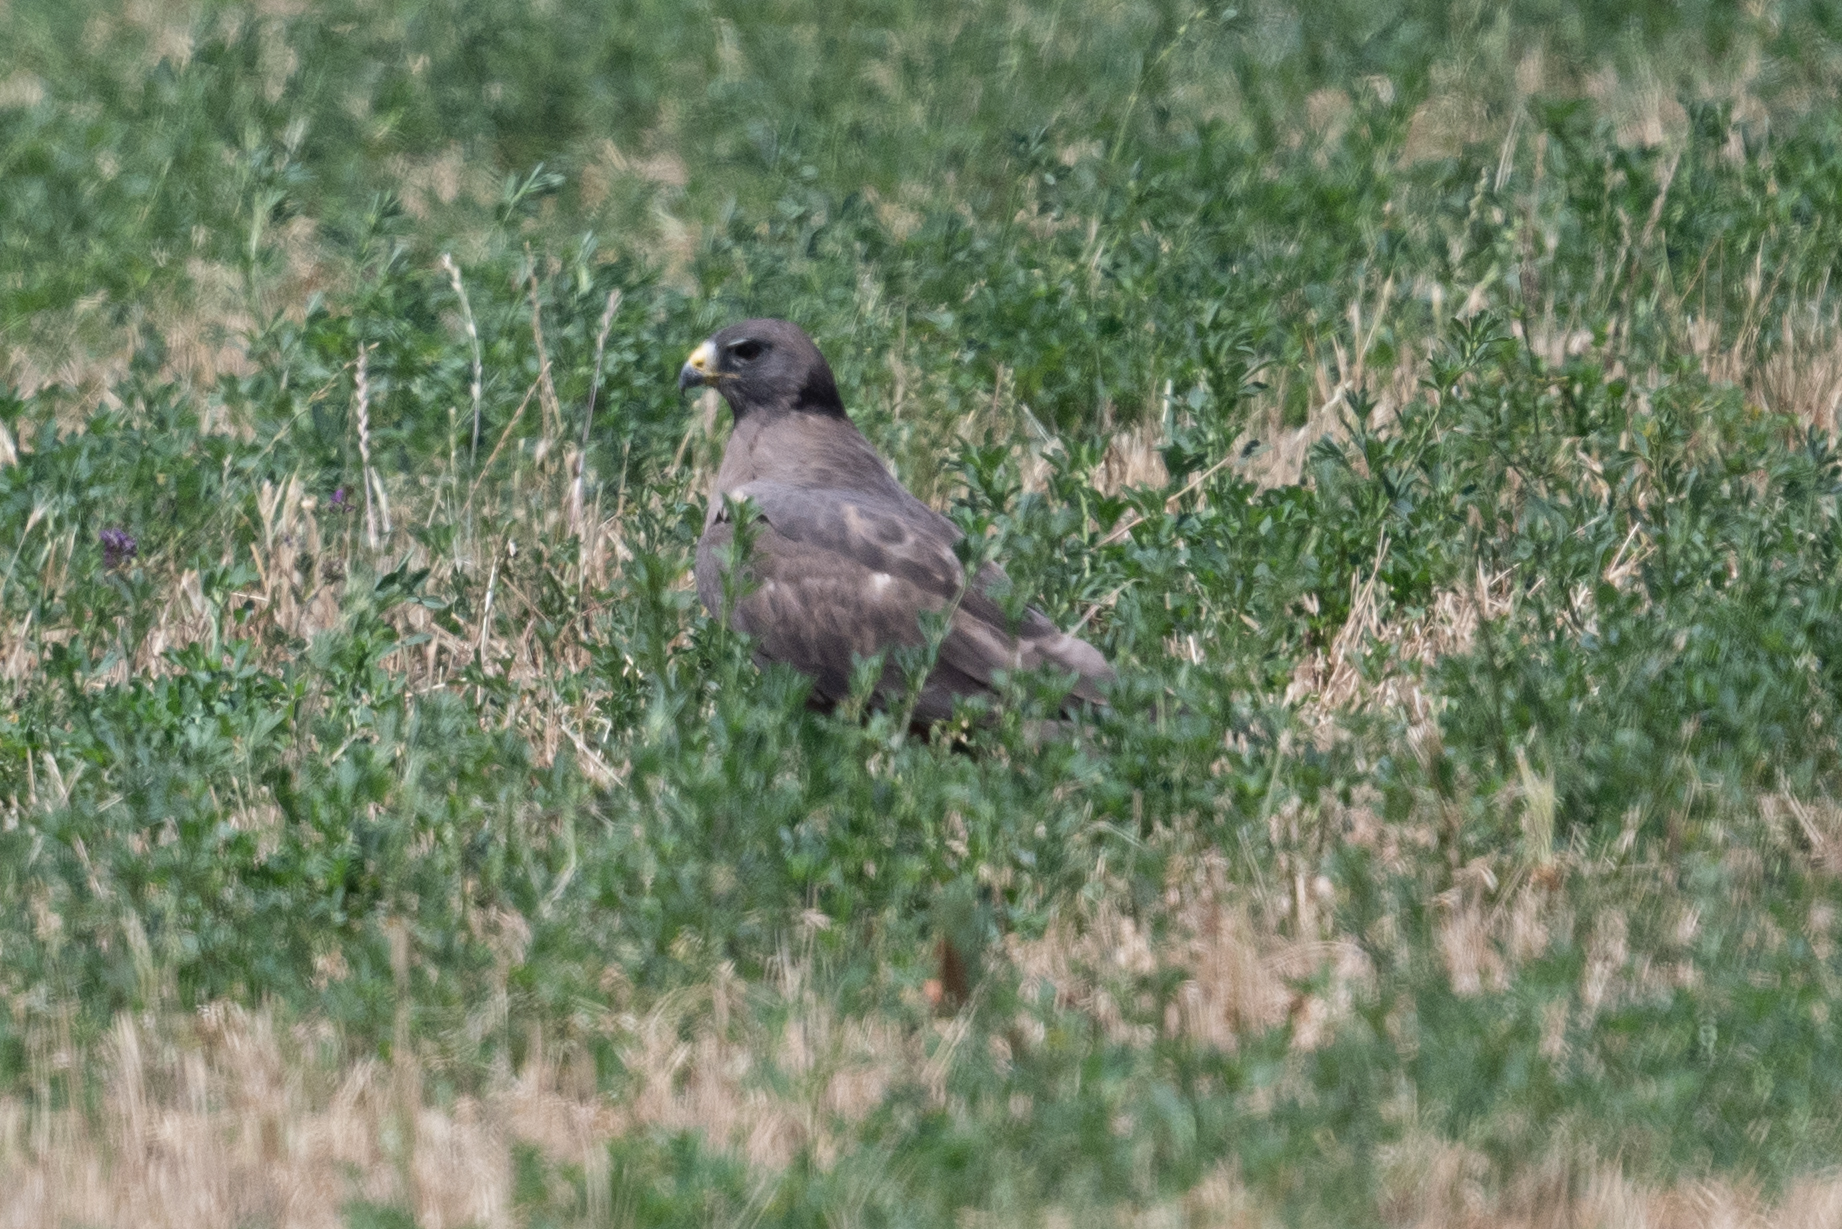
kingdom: Animalia
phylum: Chordata
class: Aves
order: Accipitriformes
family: Accipitridae
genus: Buteo
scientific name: Buteo swainsoni
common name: Swainson's hawk
